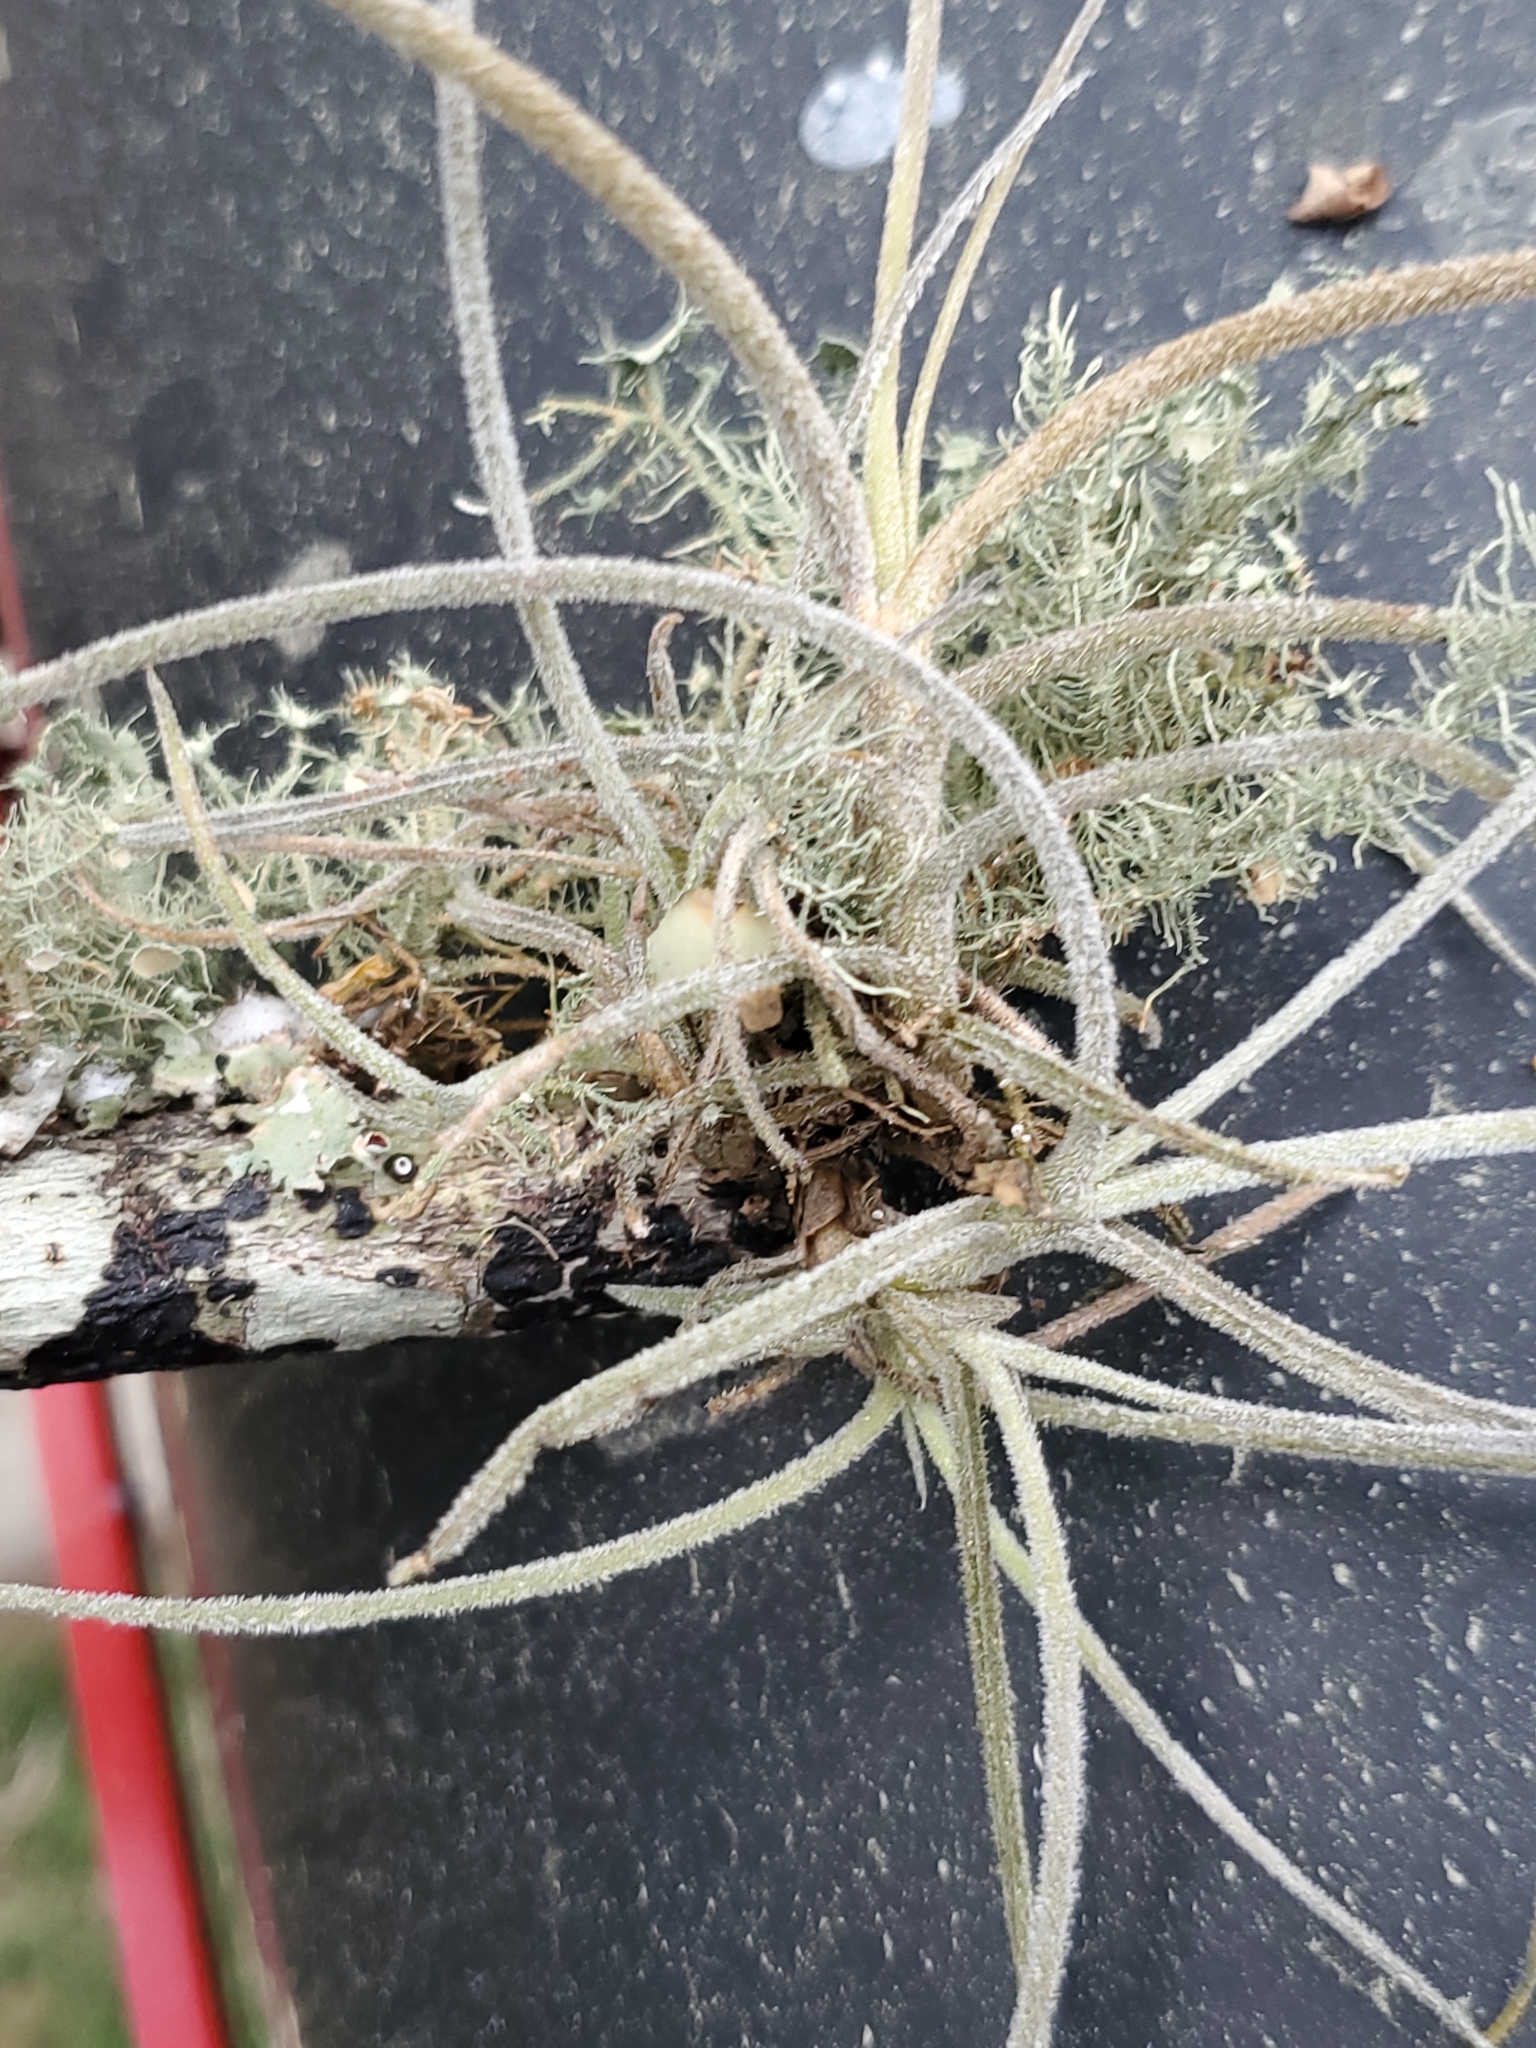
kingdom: Plantae
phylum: Tracheophyta
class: Liliopsida
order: Poales
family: Bromeliaceae
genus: Tillandsia
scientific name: Tillandsia recurvata
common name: Small ballmoss
